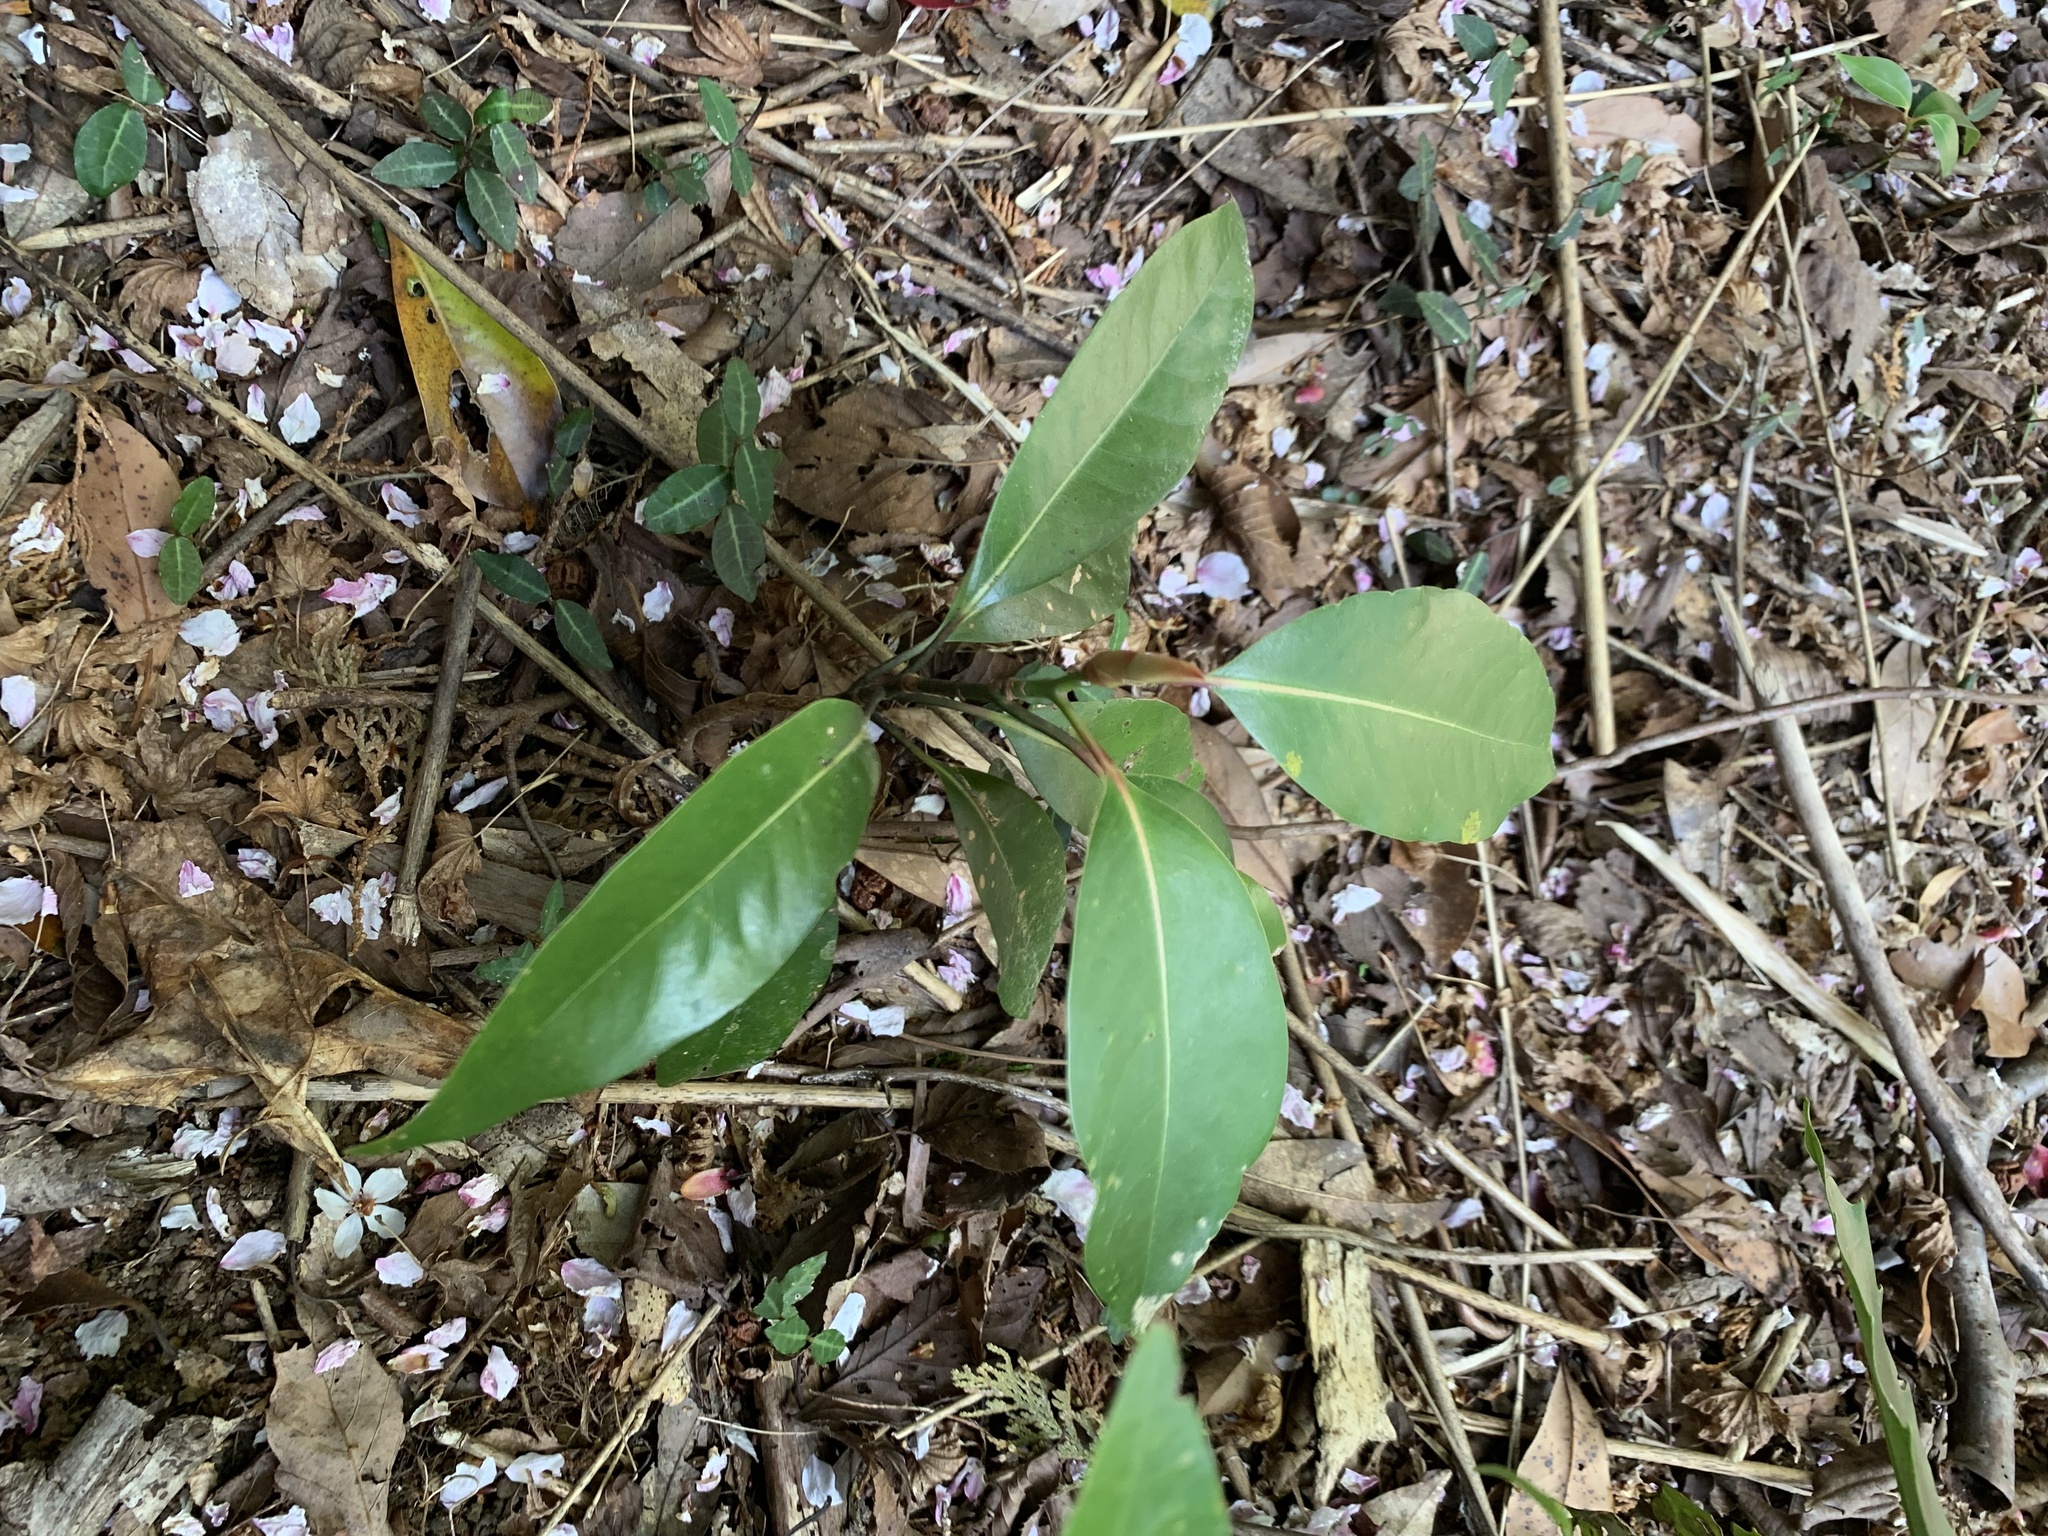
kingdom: Plantae
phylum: Tracheophyta
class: Magnoliopsida
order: Laurales
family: Lauraceae
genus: Machilus
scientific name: Machilus thunbergii
